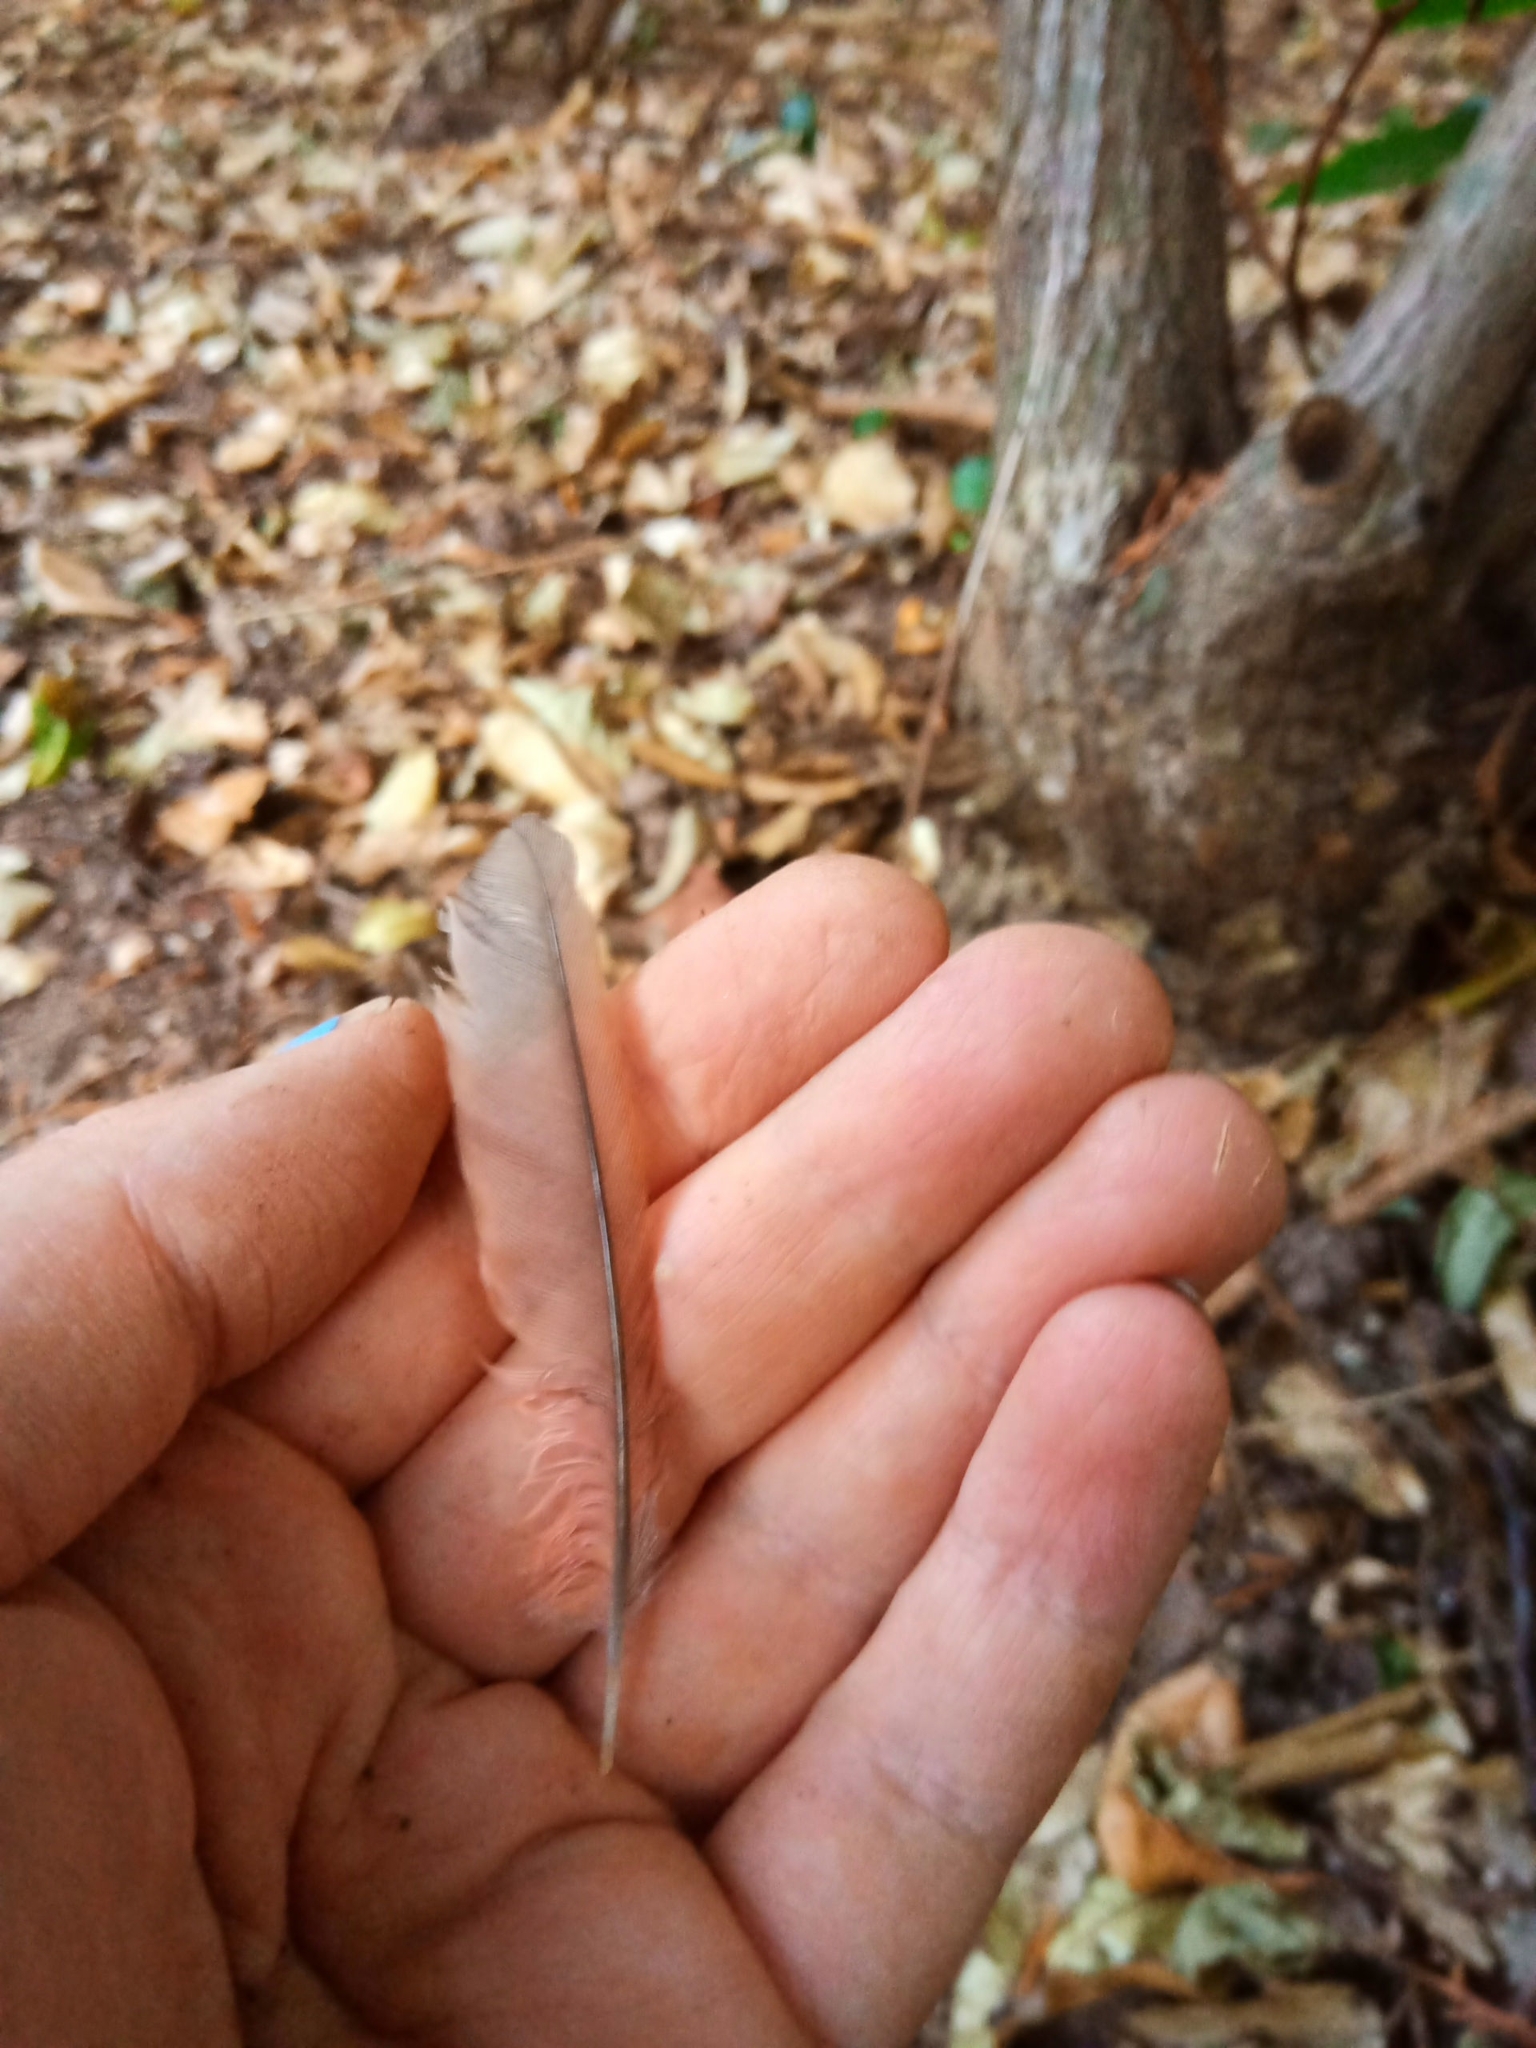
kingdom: Animalia
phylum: Chordata
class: Aves
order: Passeriformes
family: Cardinalidae
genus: Cardinalis
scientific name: Cardinalis cardinalis
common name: Northern cardinal
